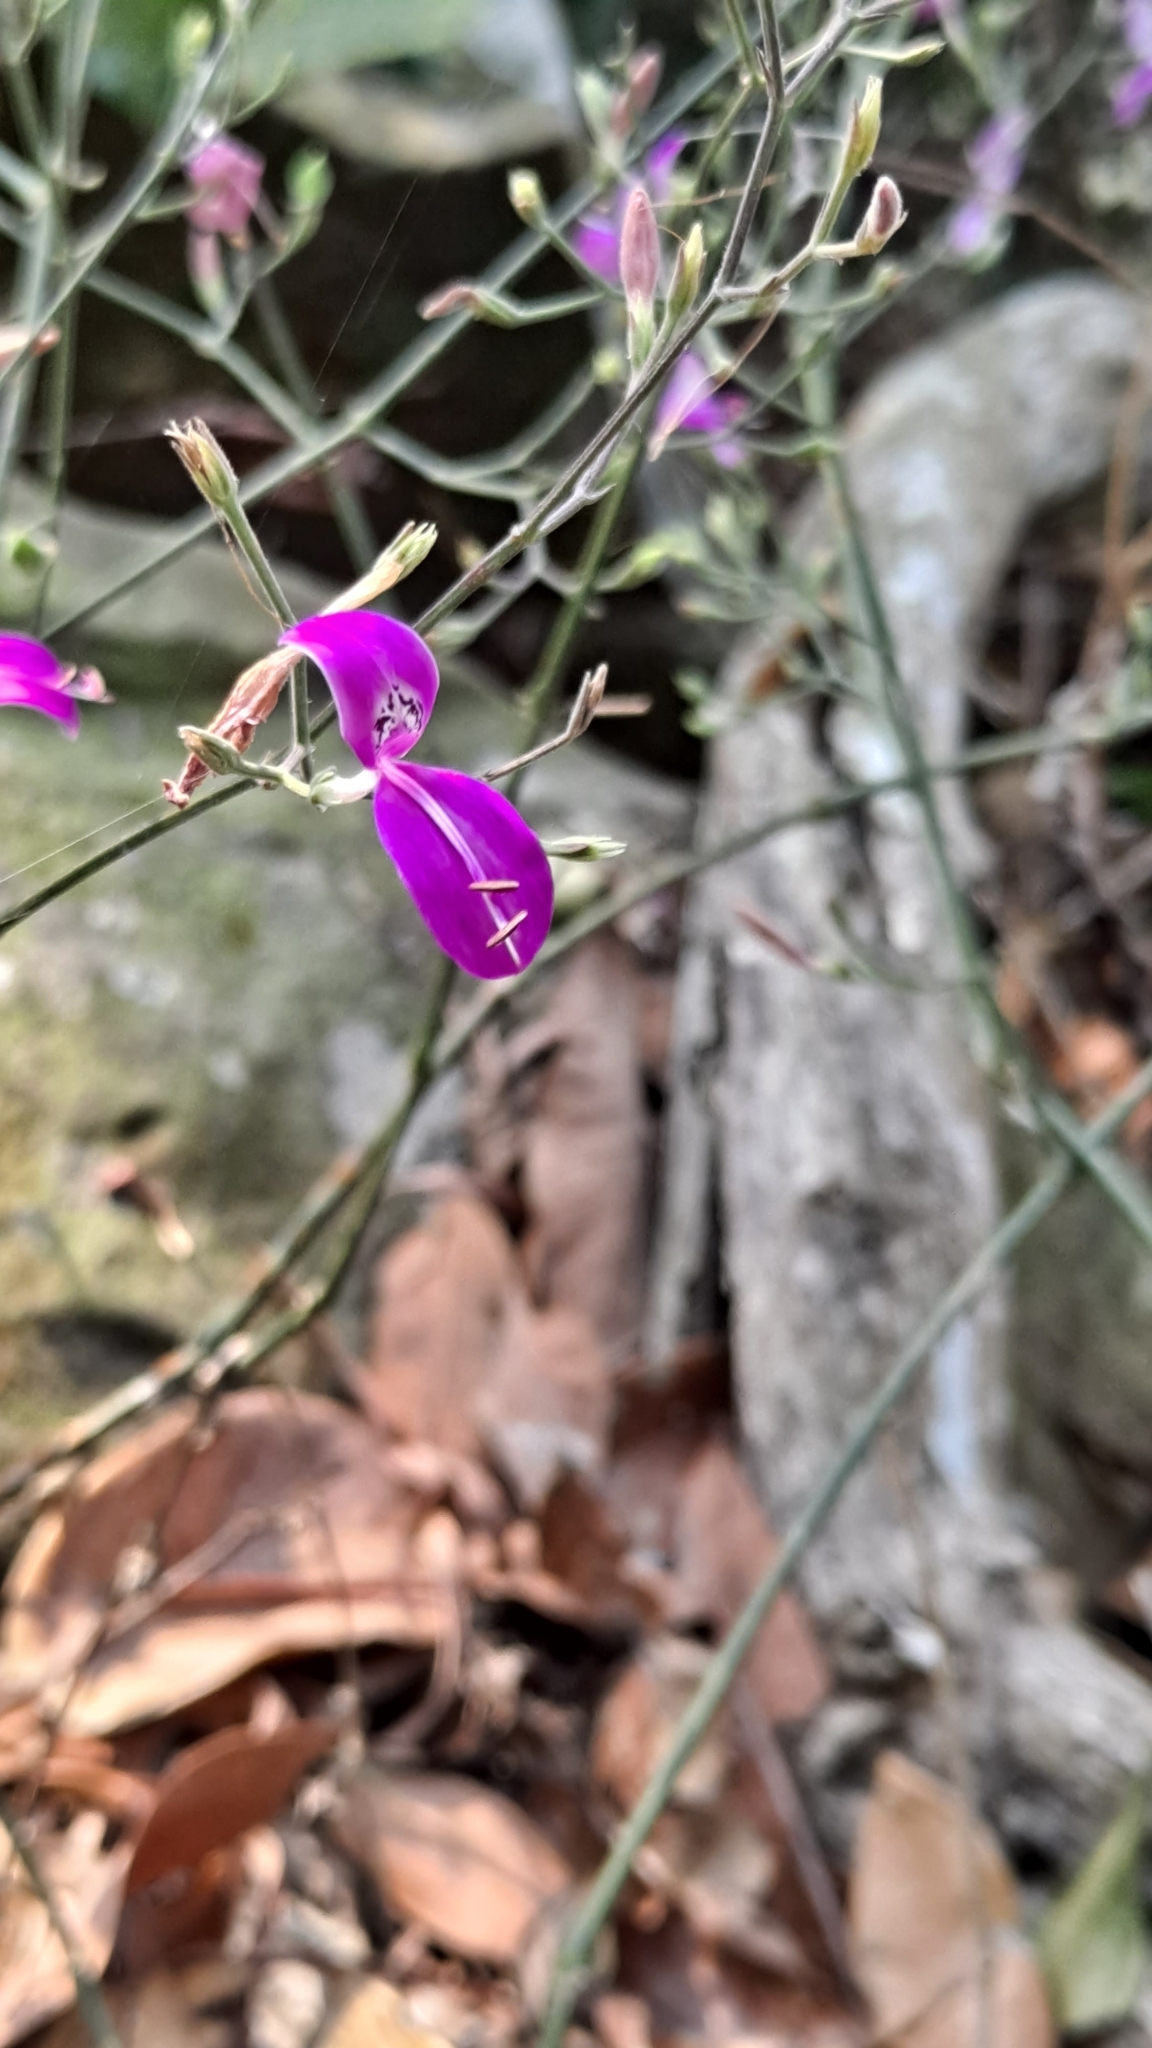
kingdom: Plantae
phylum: Tracheophyta
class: Magnoliopsida
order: Lamiales
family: Acanthaceae
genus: Hypoestes
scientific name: Hypoestes cumingiana
